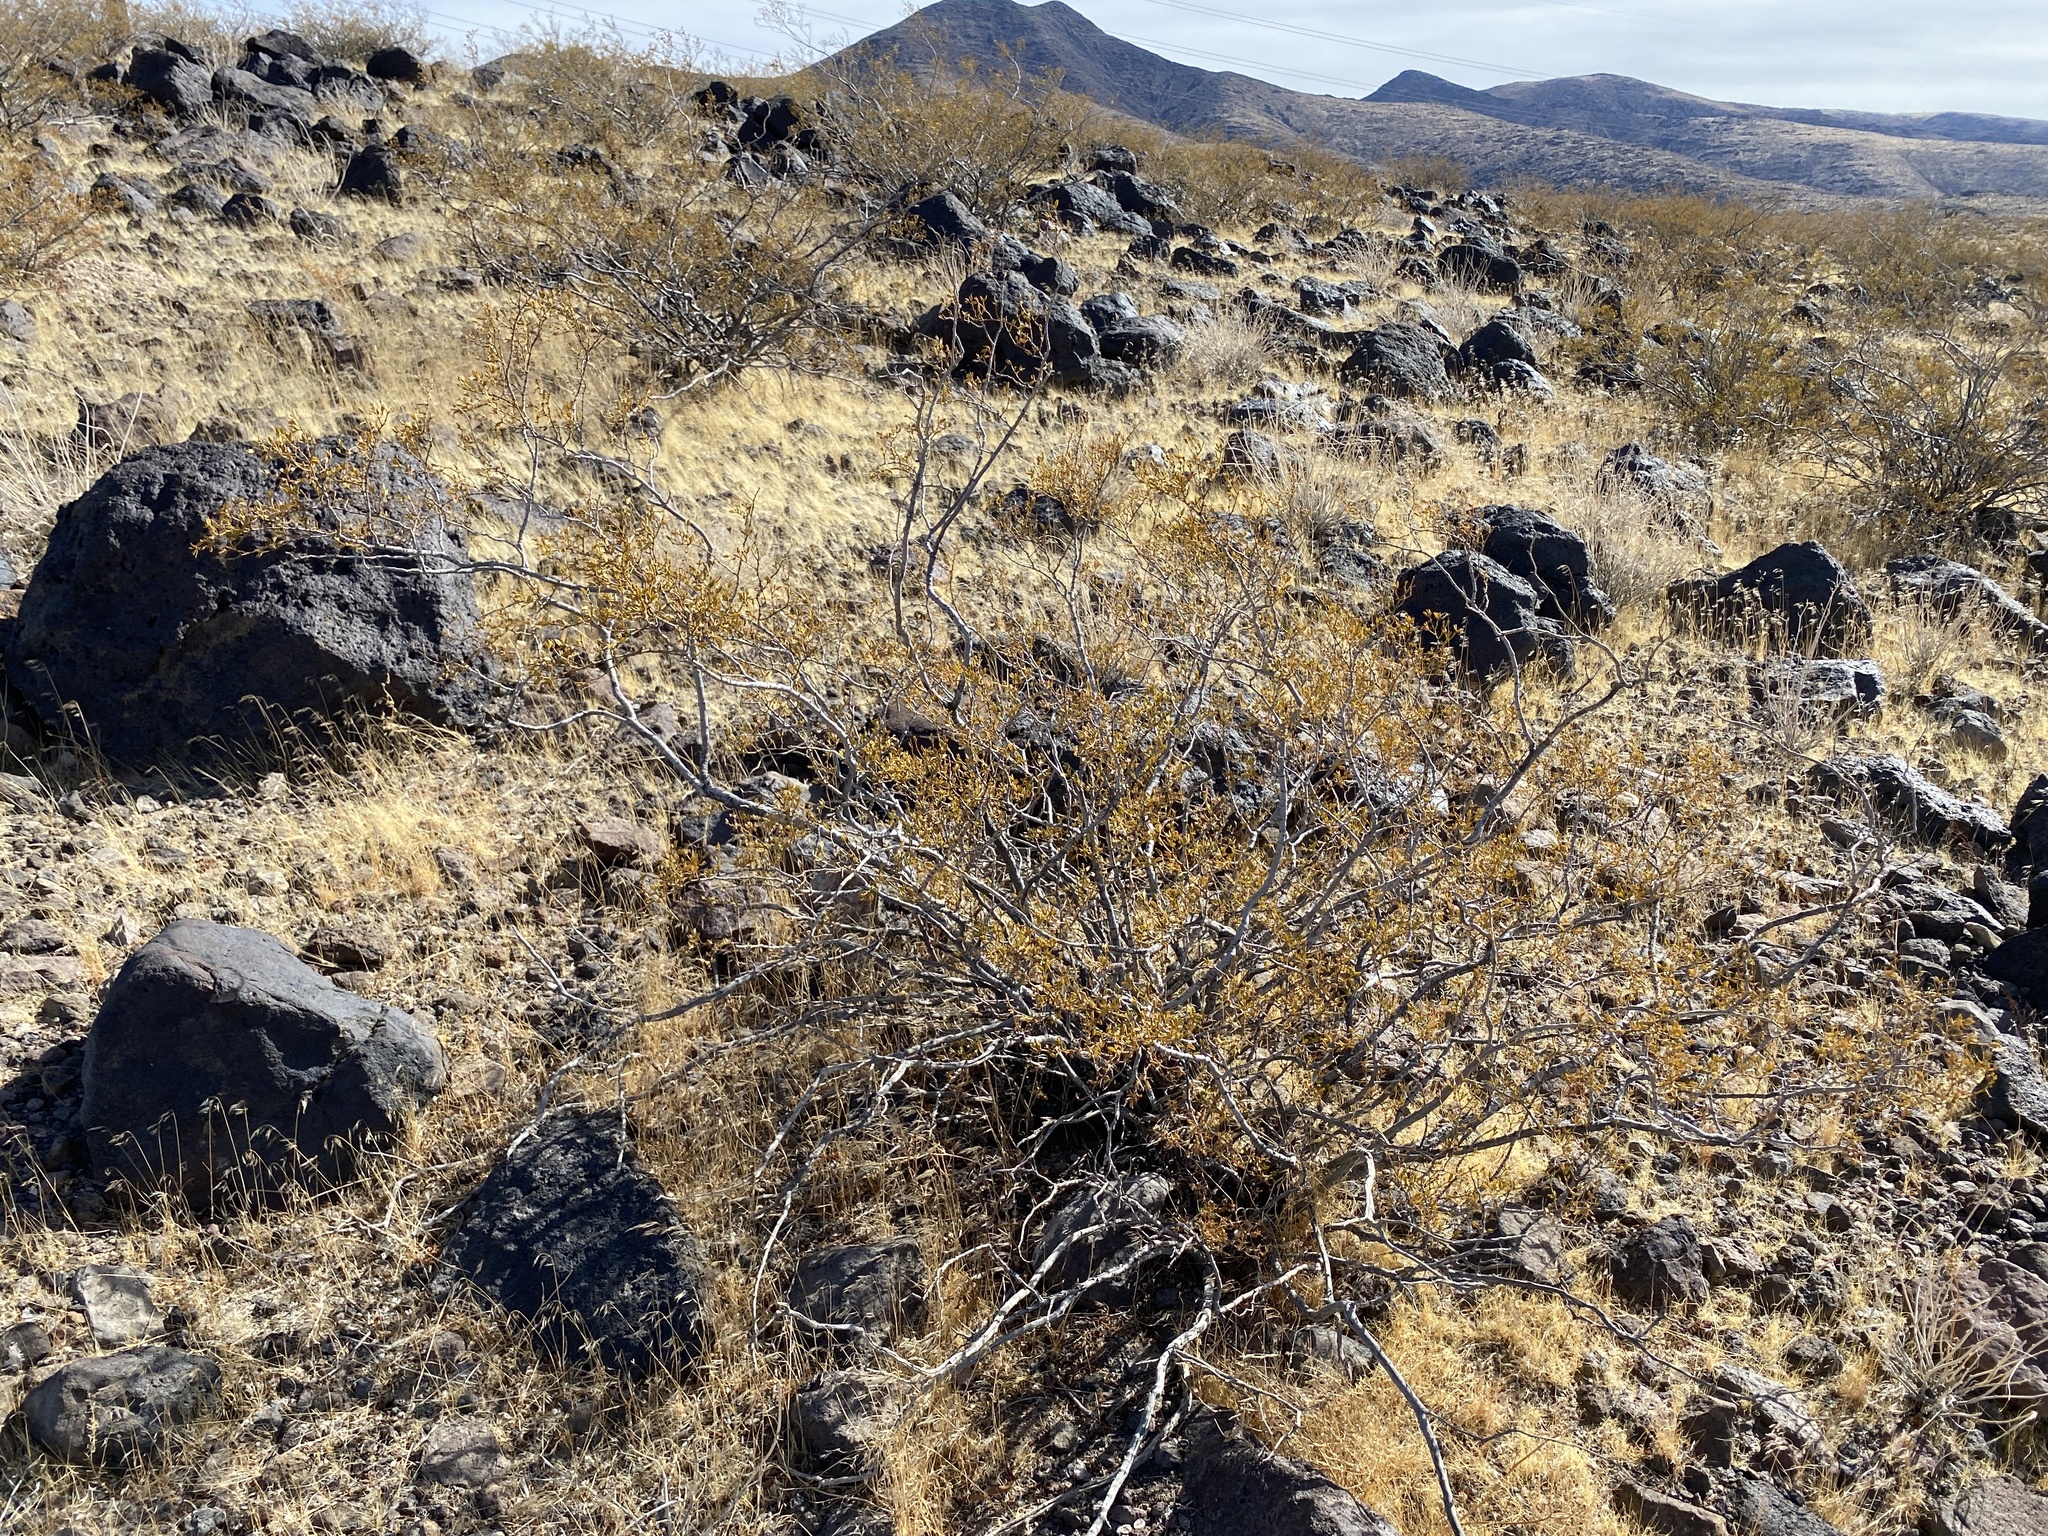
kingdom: Plantae
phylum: Tracheophyta
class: Magnoliopsida
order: Zygophyllales
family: Zygophyllaceae
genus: Larrea
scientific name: Larrea tridentata
